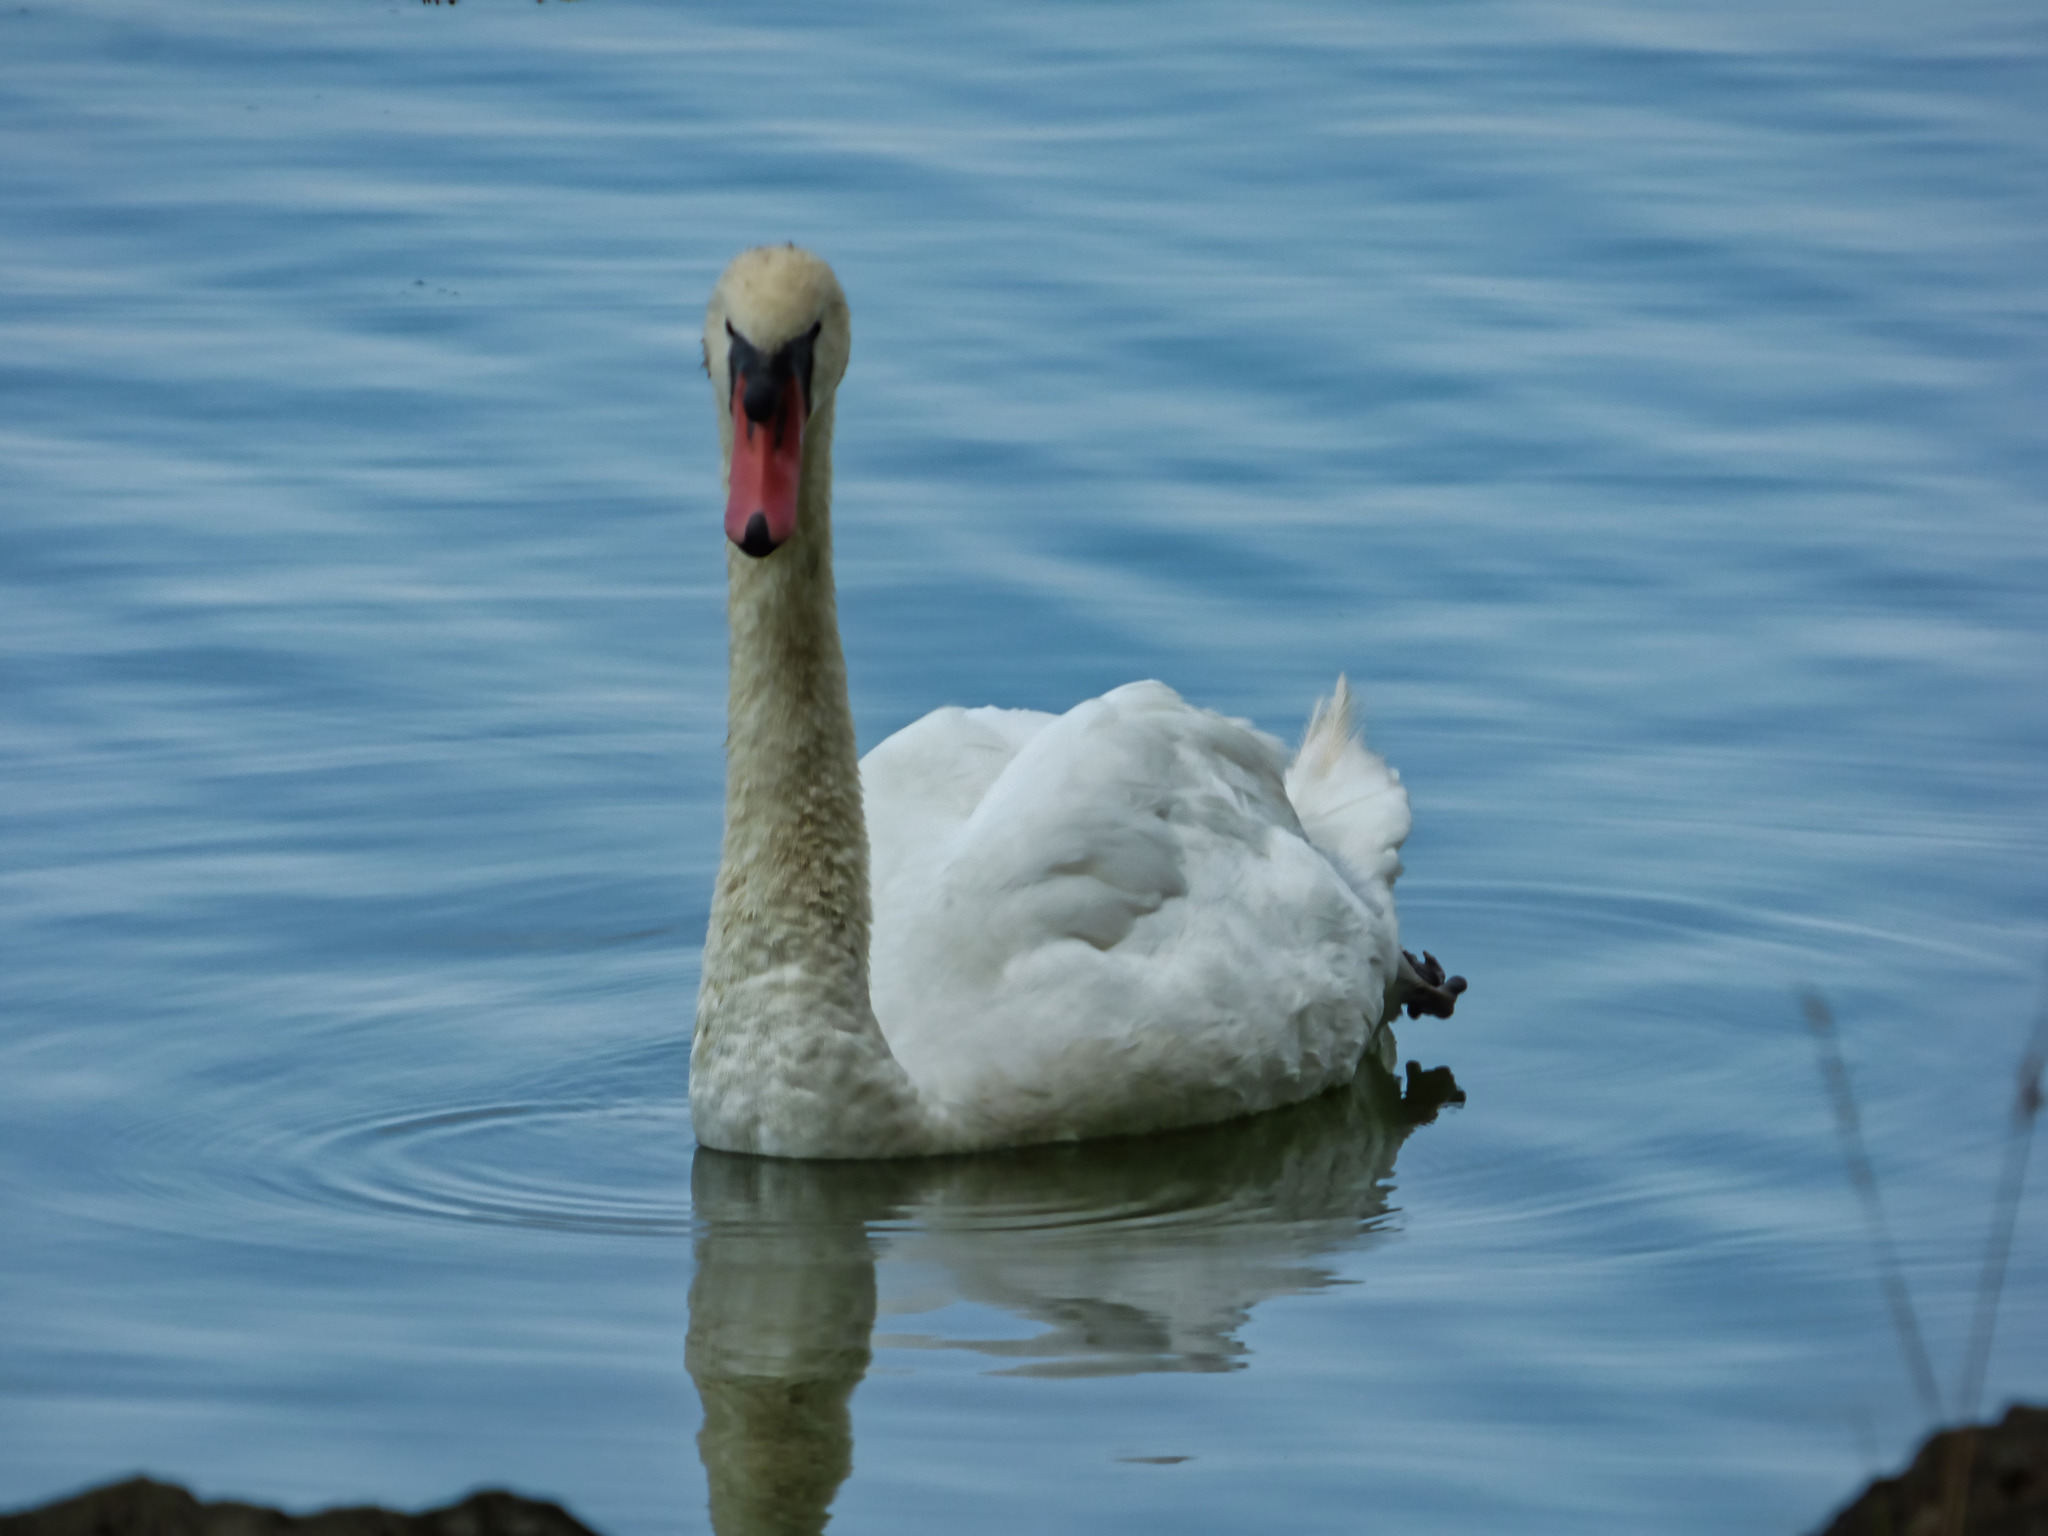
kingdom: Animalia
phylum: Chordata
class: Aves
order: Anseriformes
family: Anatidae
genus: Cygnus
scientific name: Cygnus olor
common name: Mute swan
